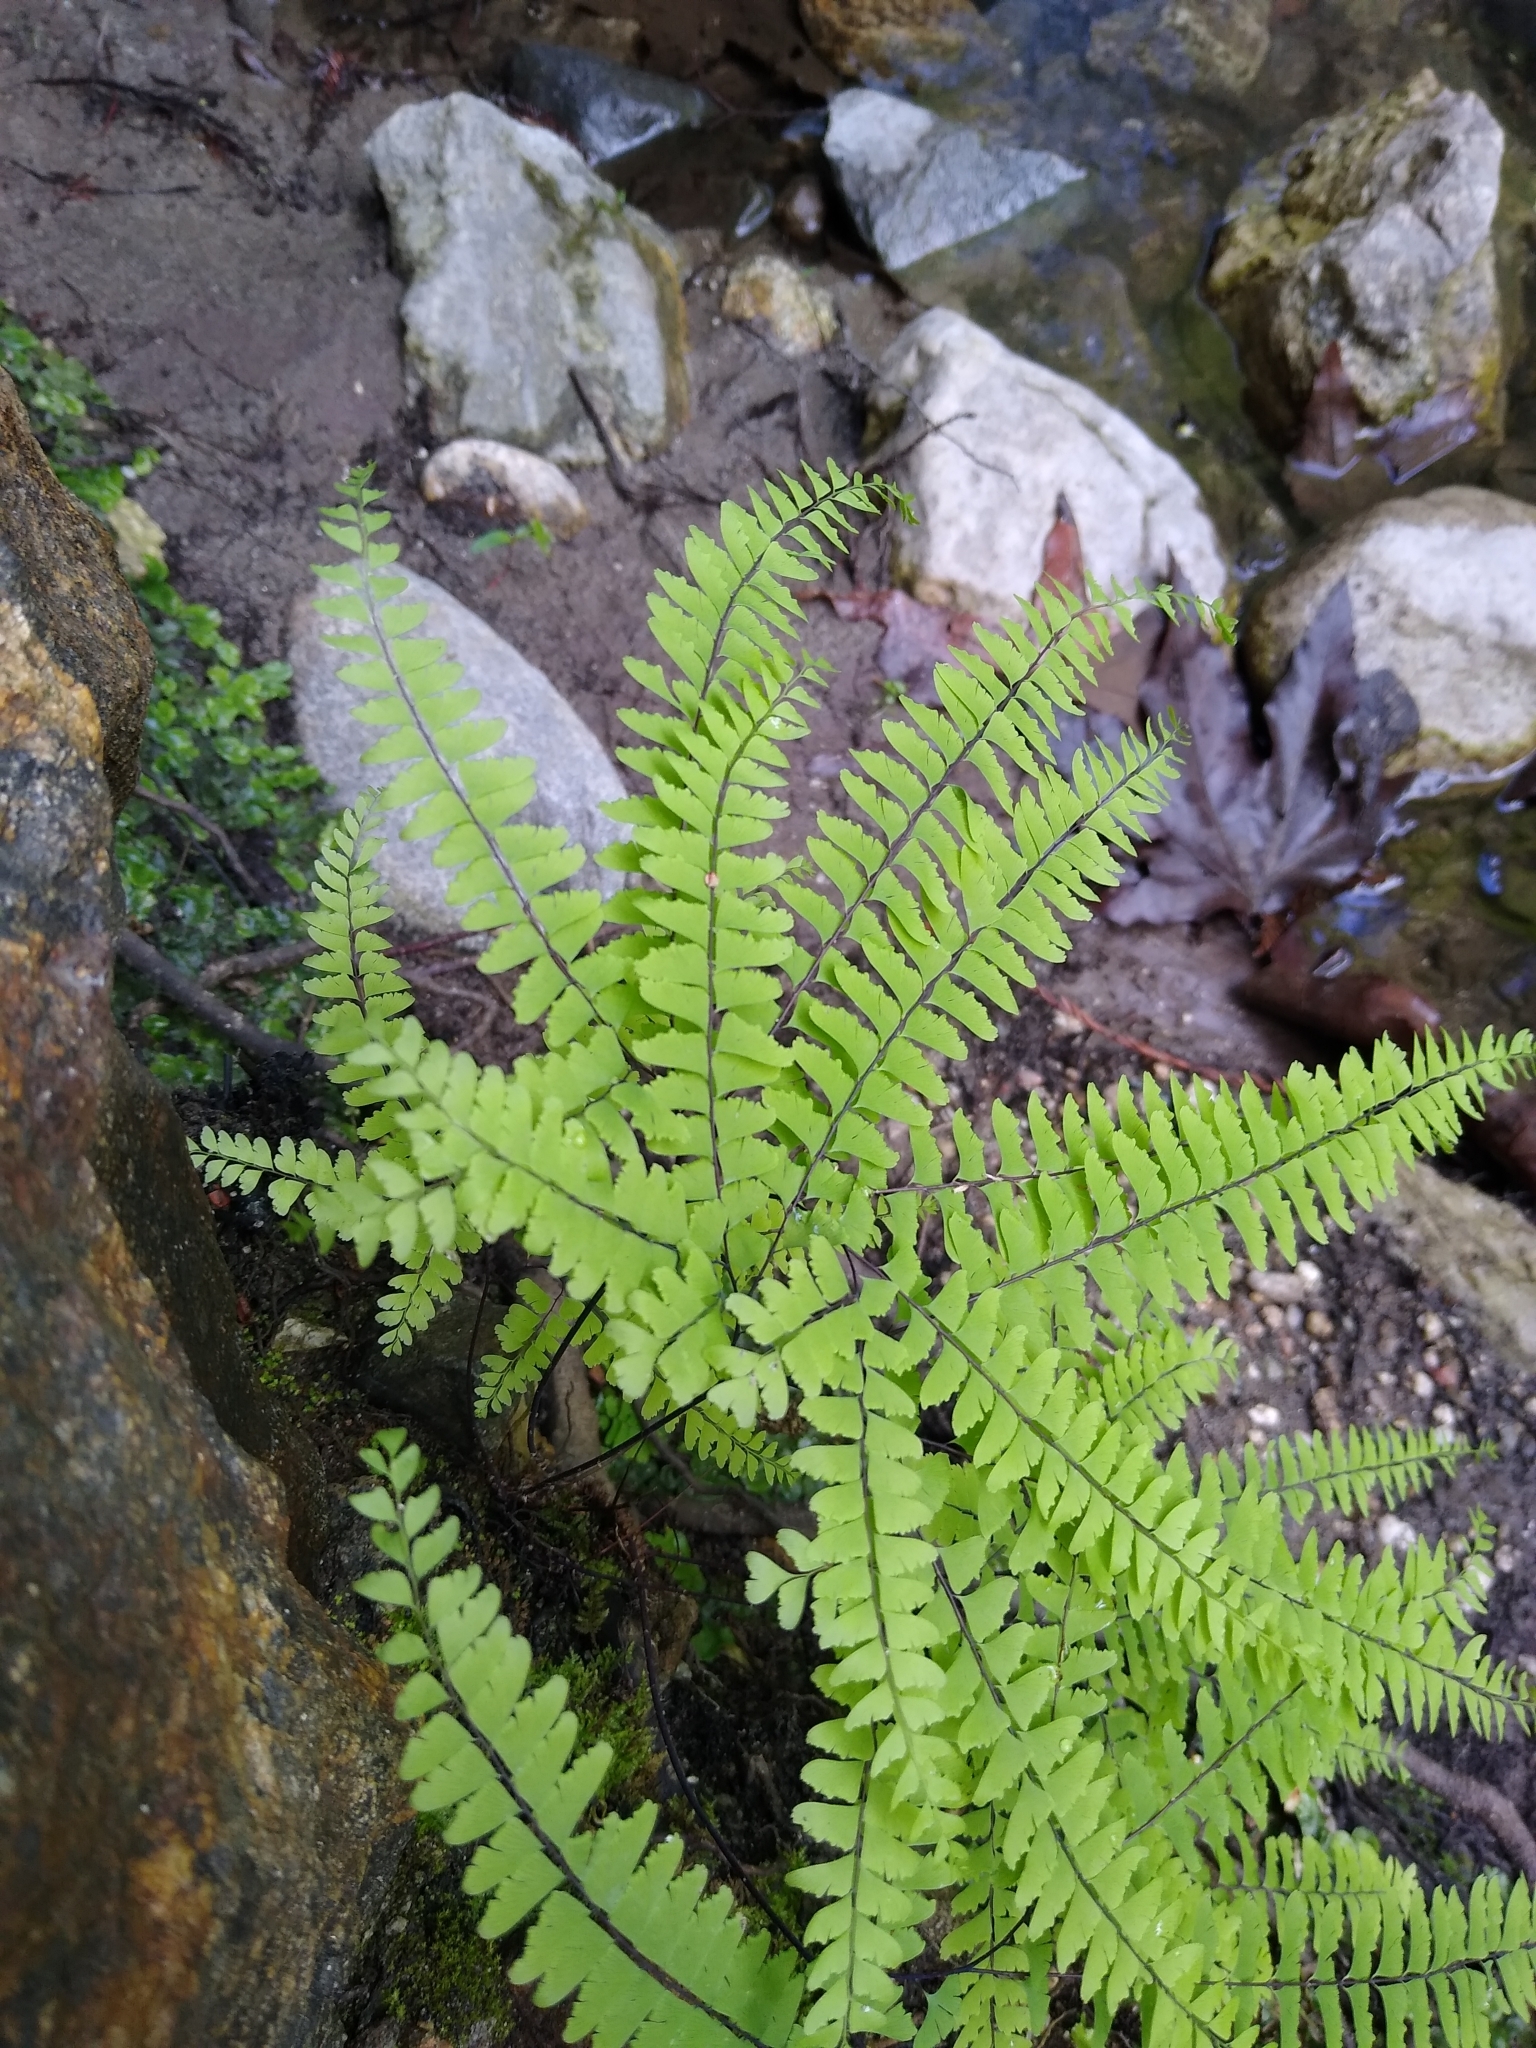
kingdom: Plantae
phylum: Tracheophyta
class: Polypodiopsida
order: Polypodiales
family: Pteridaceae
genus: Adiantum
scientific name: Adiantum aleuticum
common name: Aleutian maidenhair fern
